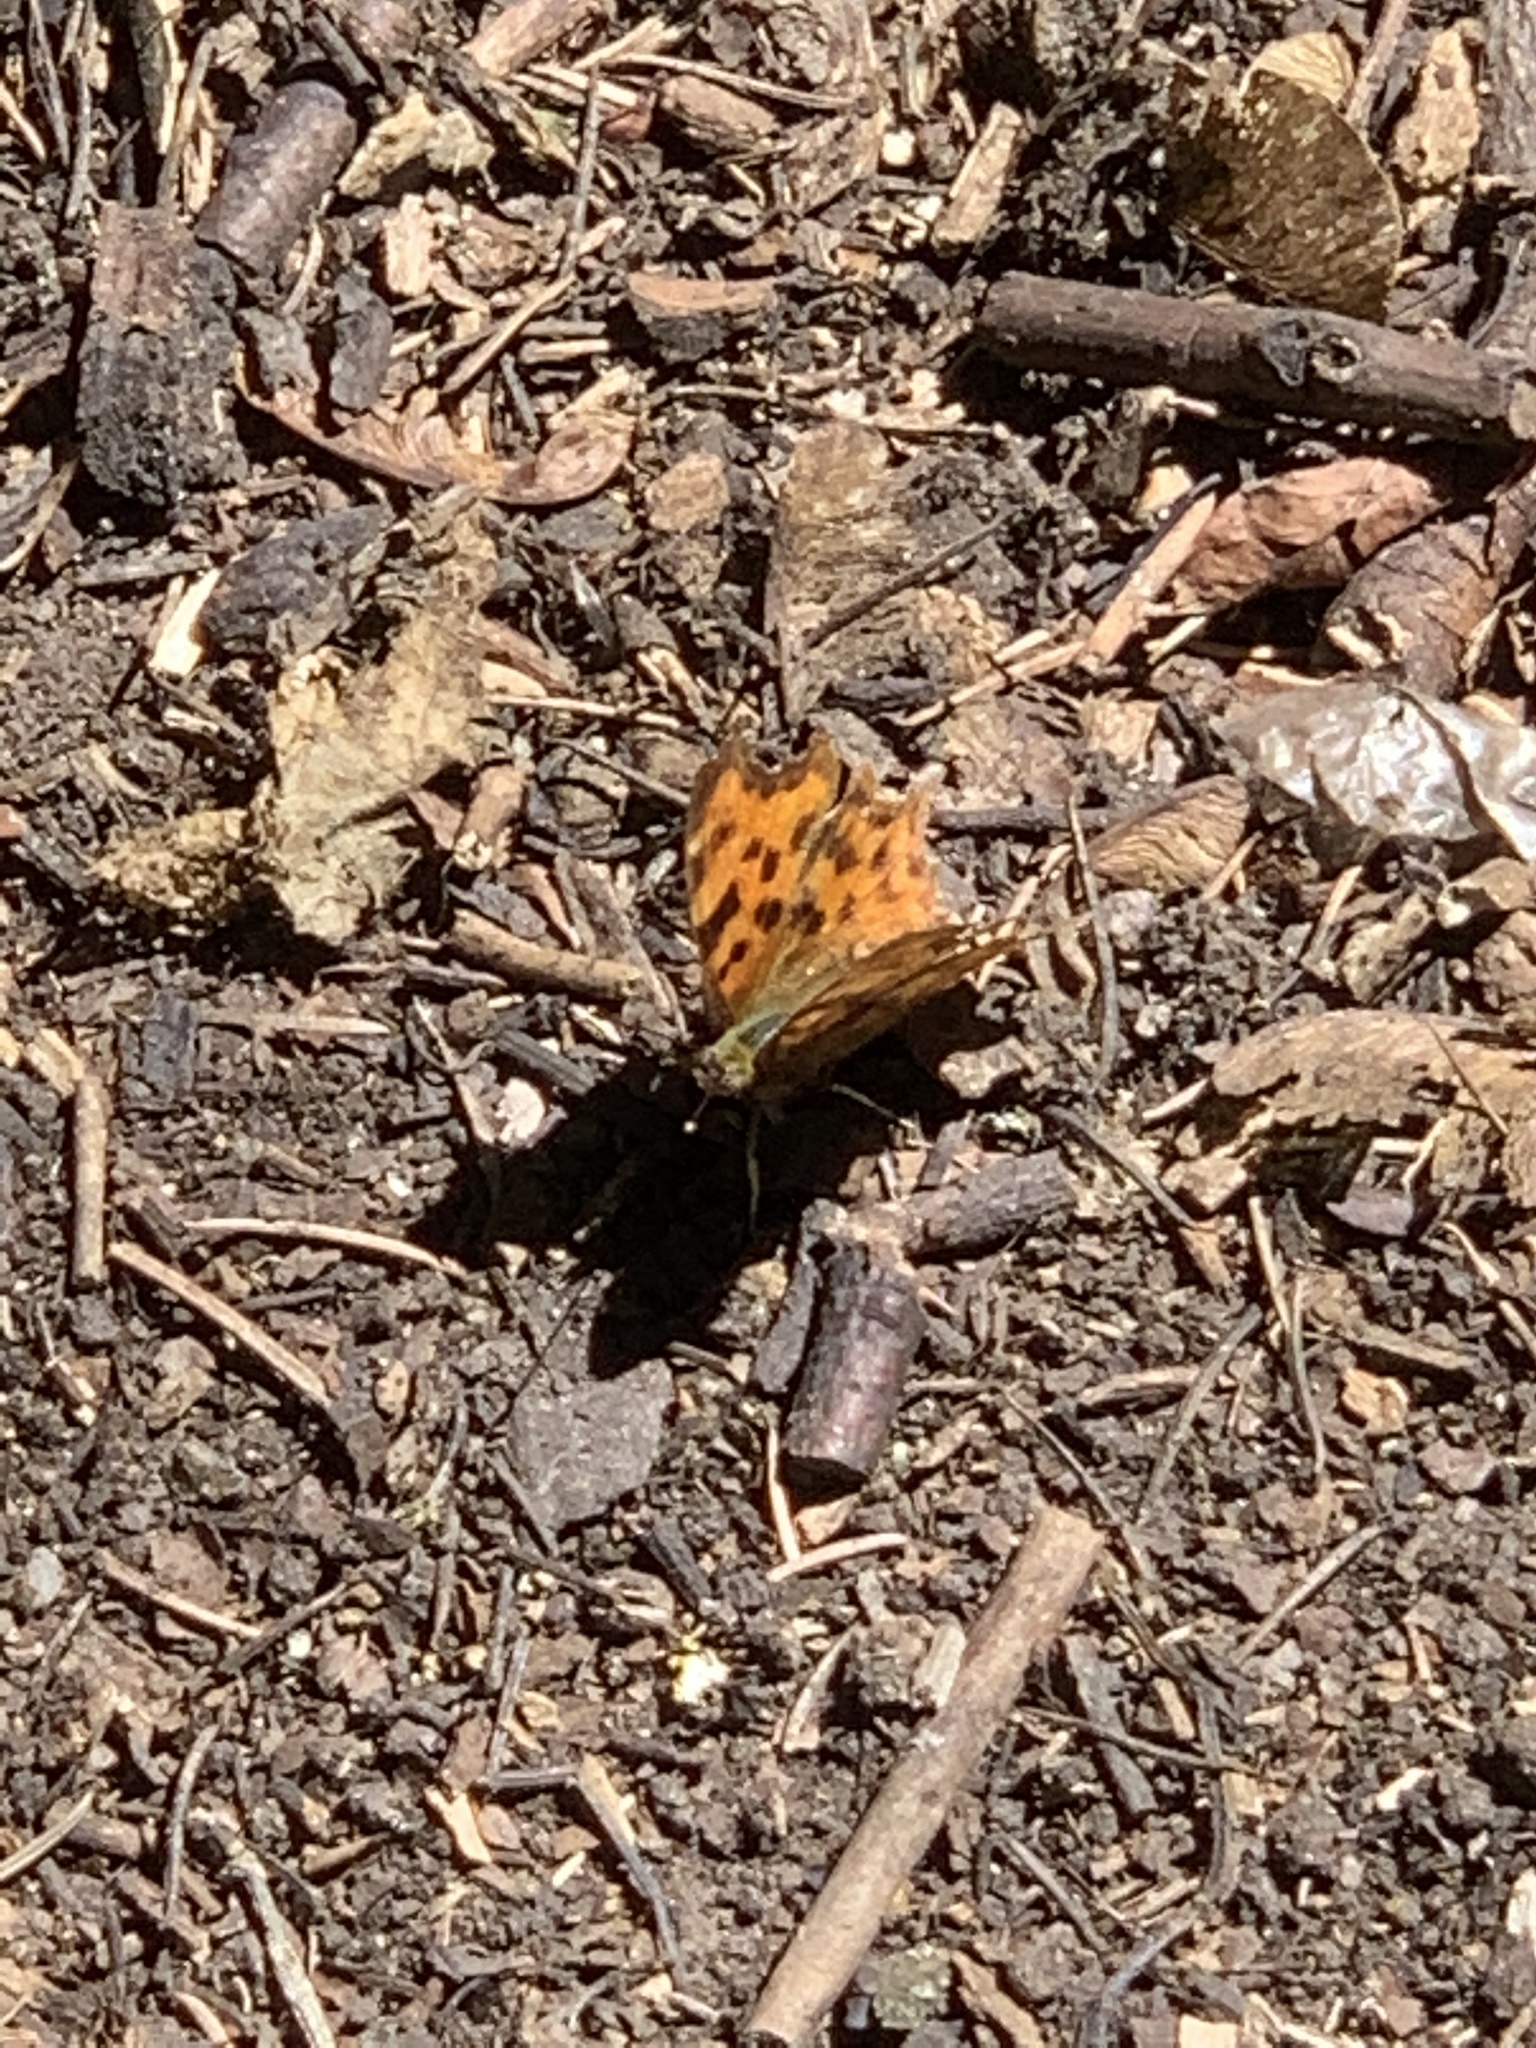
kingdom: Animalia
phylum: Arthropoda
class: Insecta
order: Lepidoptera
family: Nymphalidae
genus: Polygonia
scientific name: Polygonia c-album
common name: Comma
